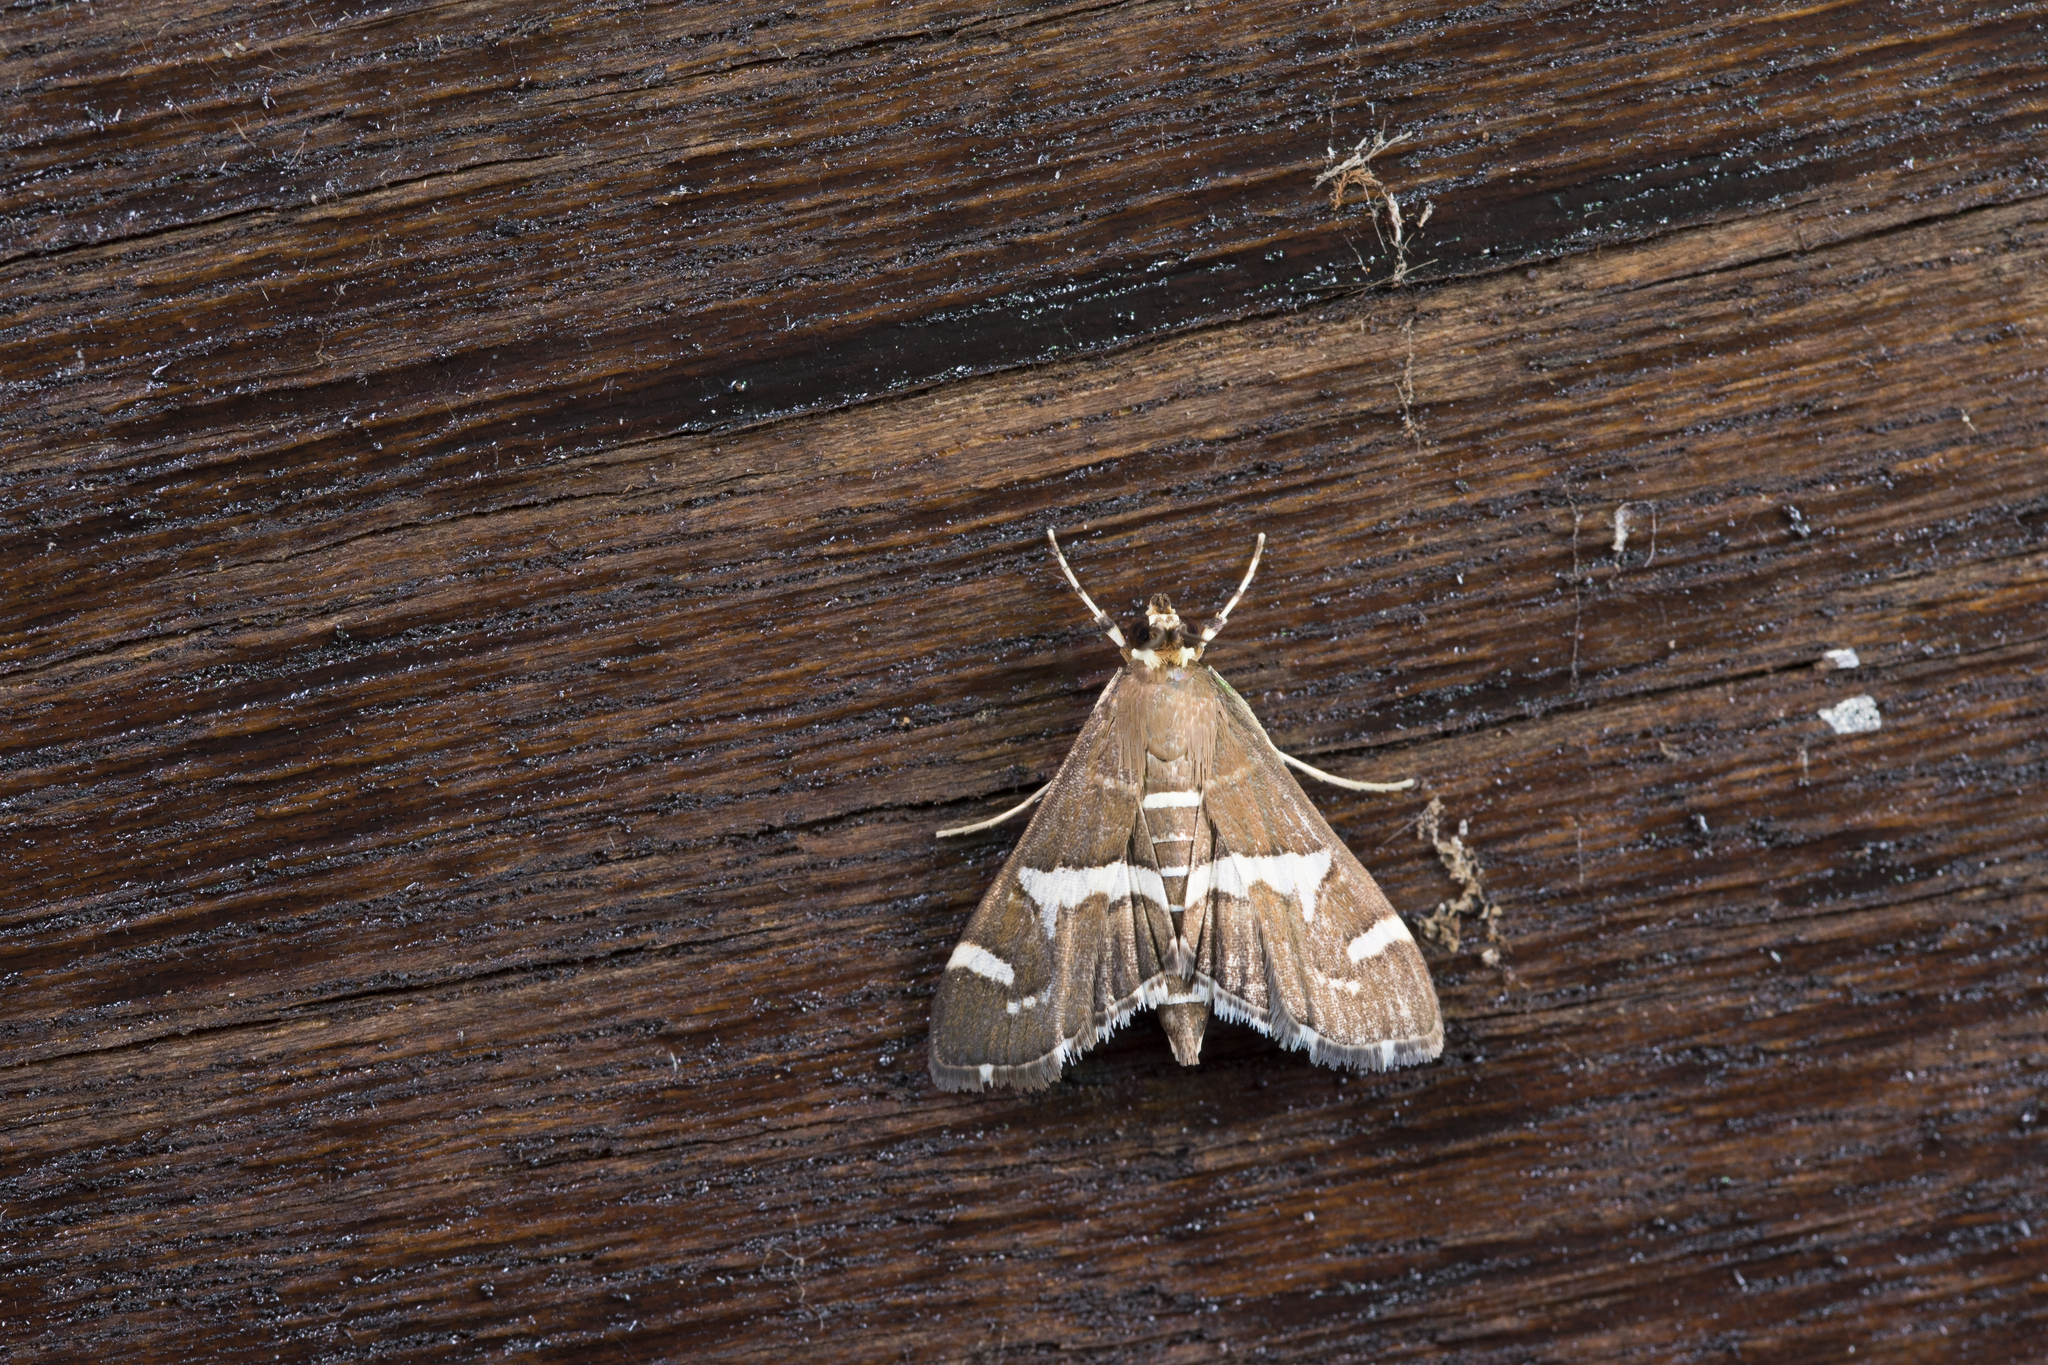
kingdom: Animalia
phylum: Arthropoda
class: Insecta
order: Lepidoptera
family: Crambidae
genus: Spoladea
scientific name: Spoladea recurvalis
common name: Beet webworm moth
